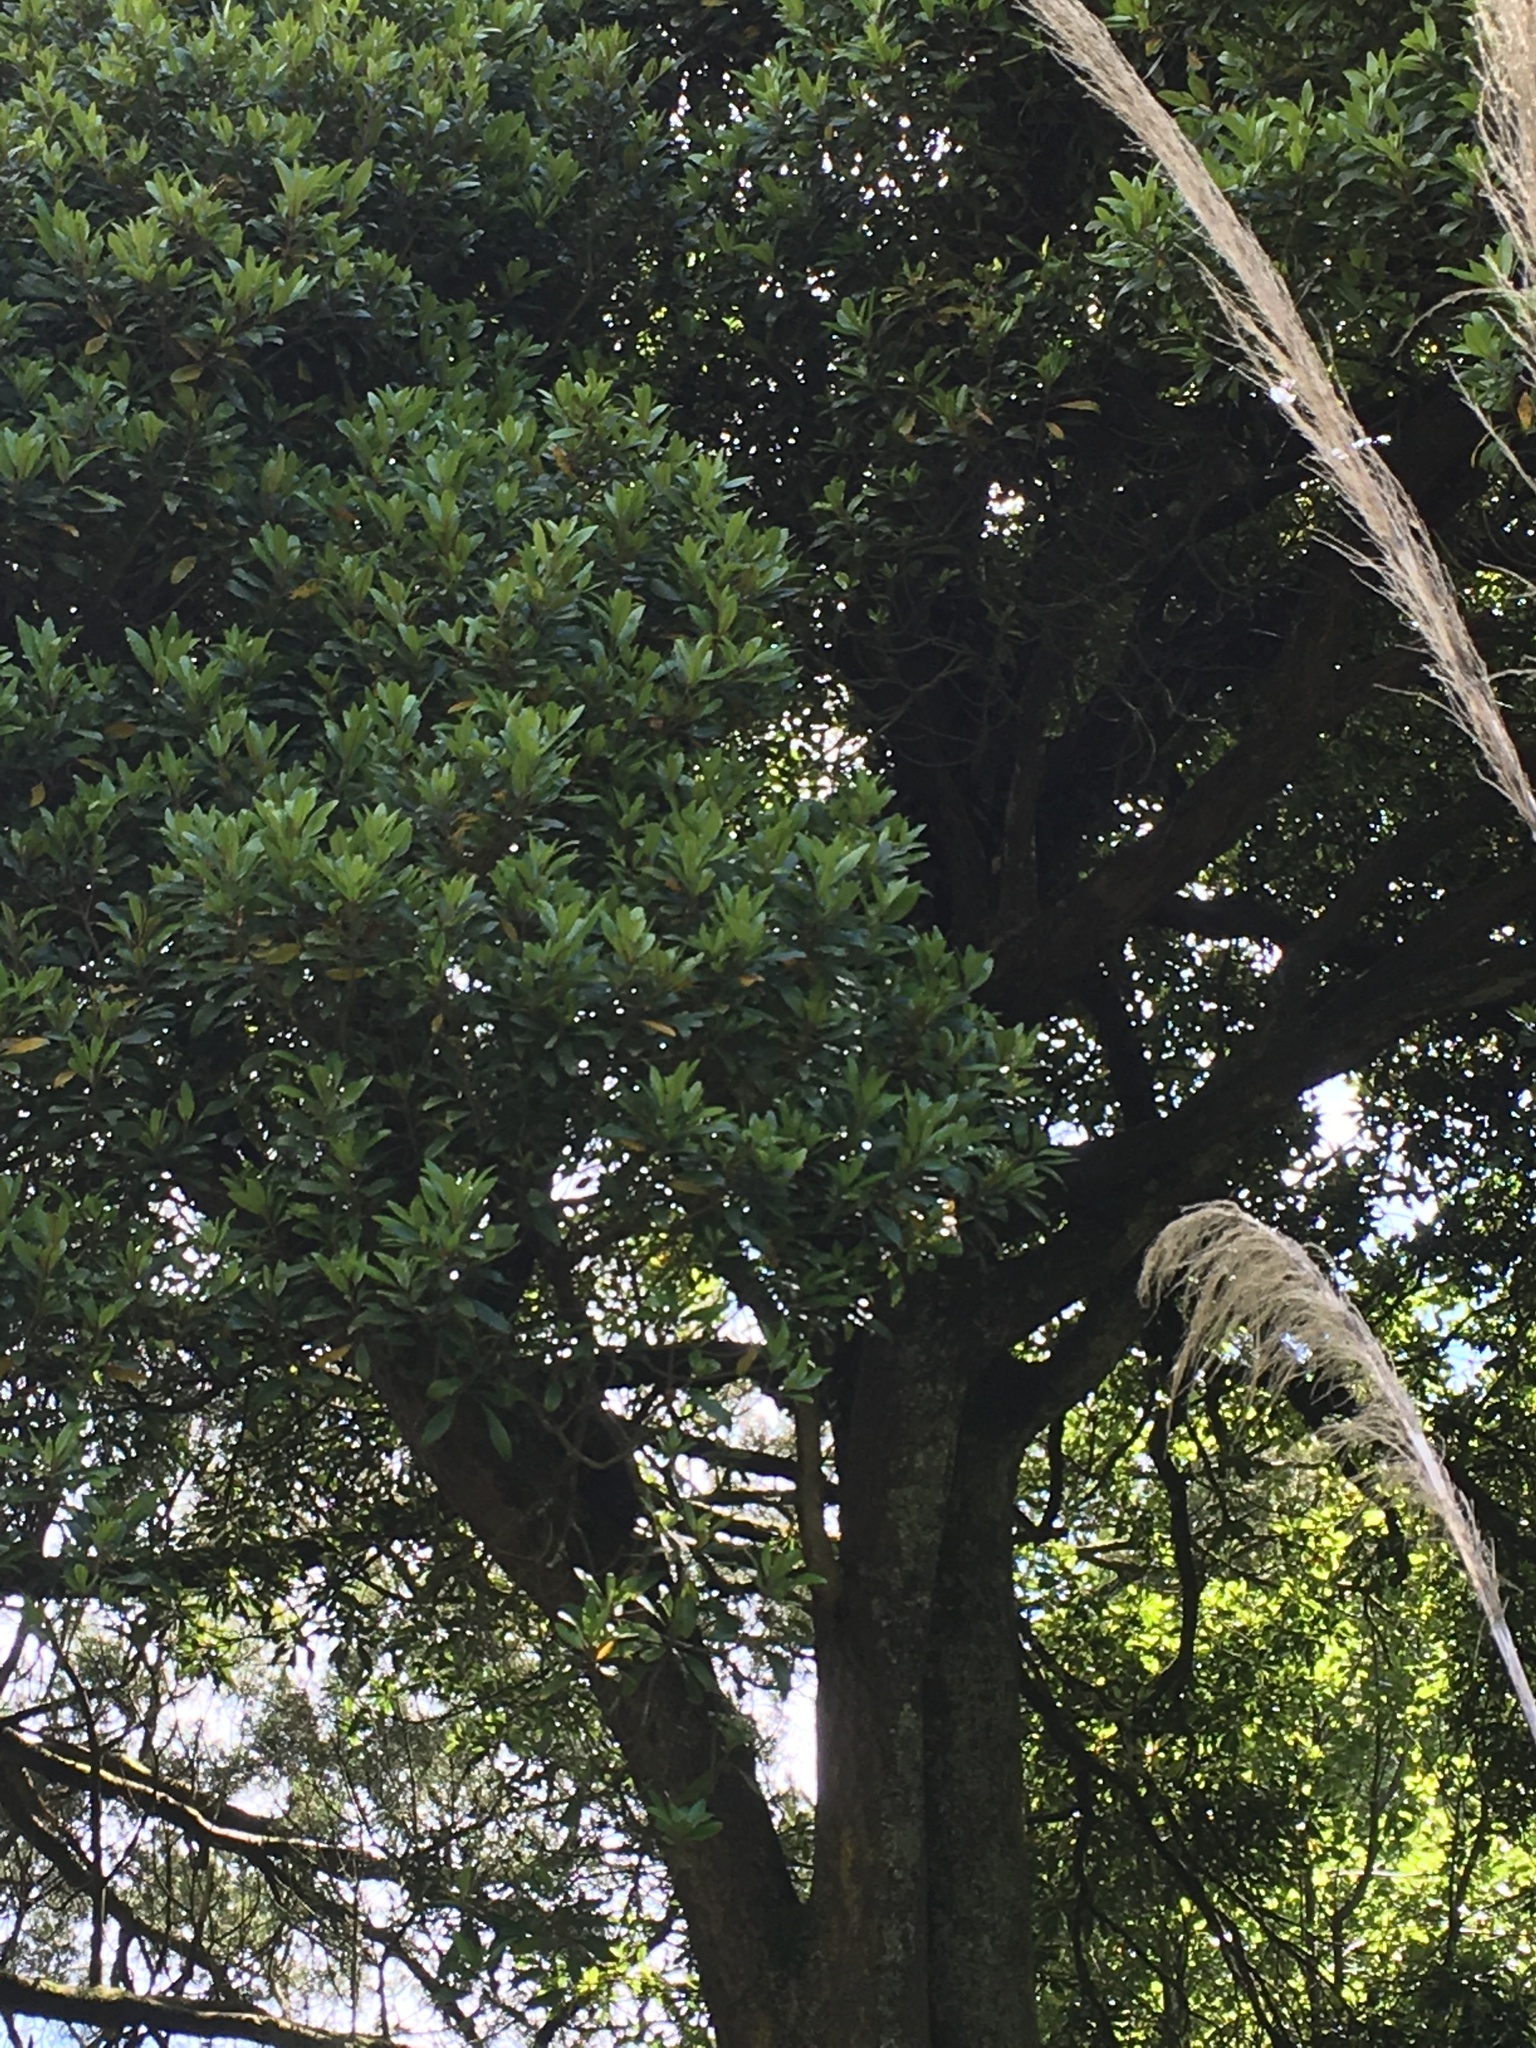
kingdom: Plantae
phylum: Tracheophyta
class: Magnoliopsida
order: Oxalidales
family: Elaeocarpaceae
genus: Elaeocarpus
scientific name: Elaeocarpus hookerianus
